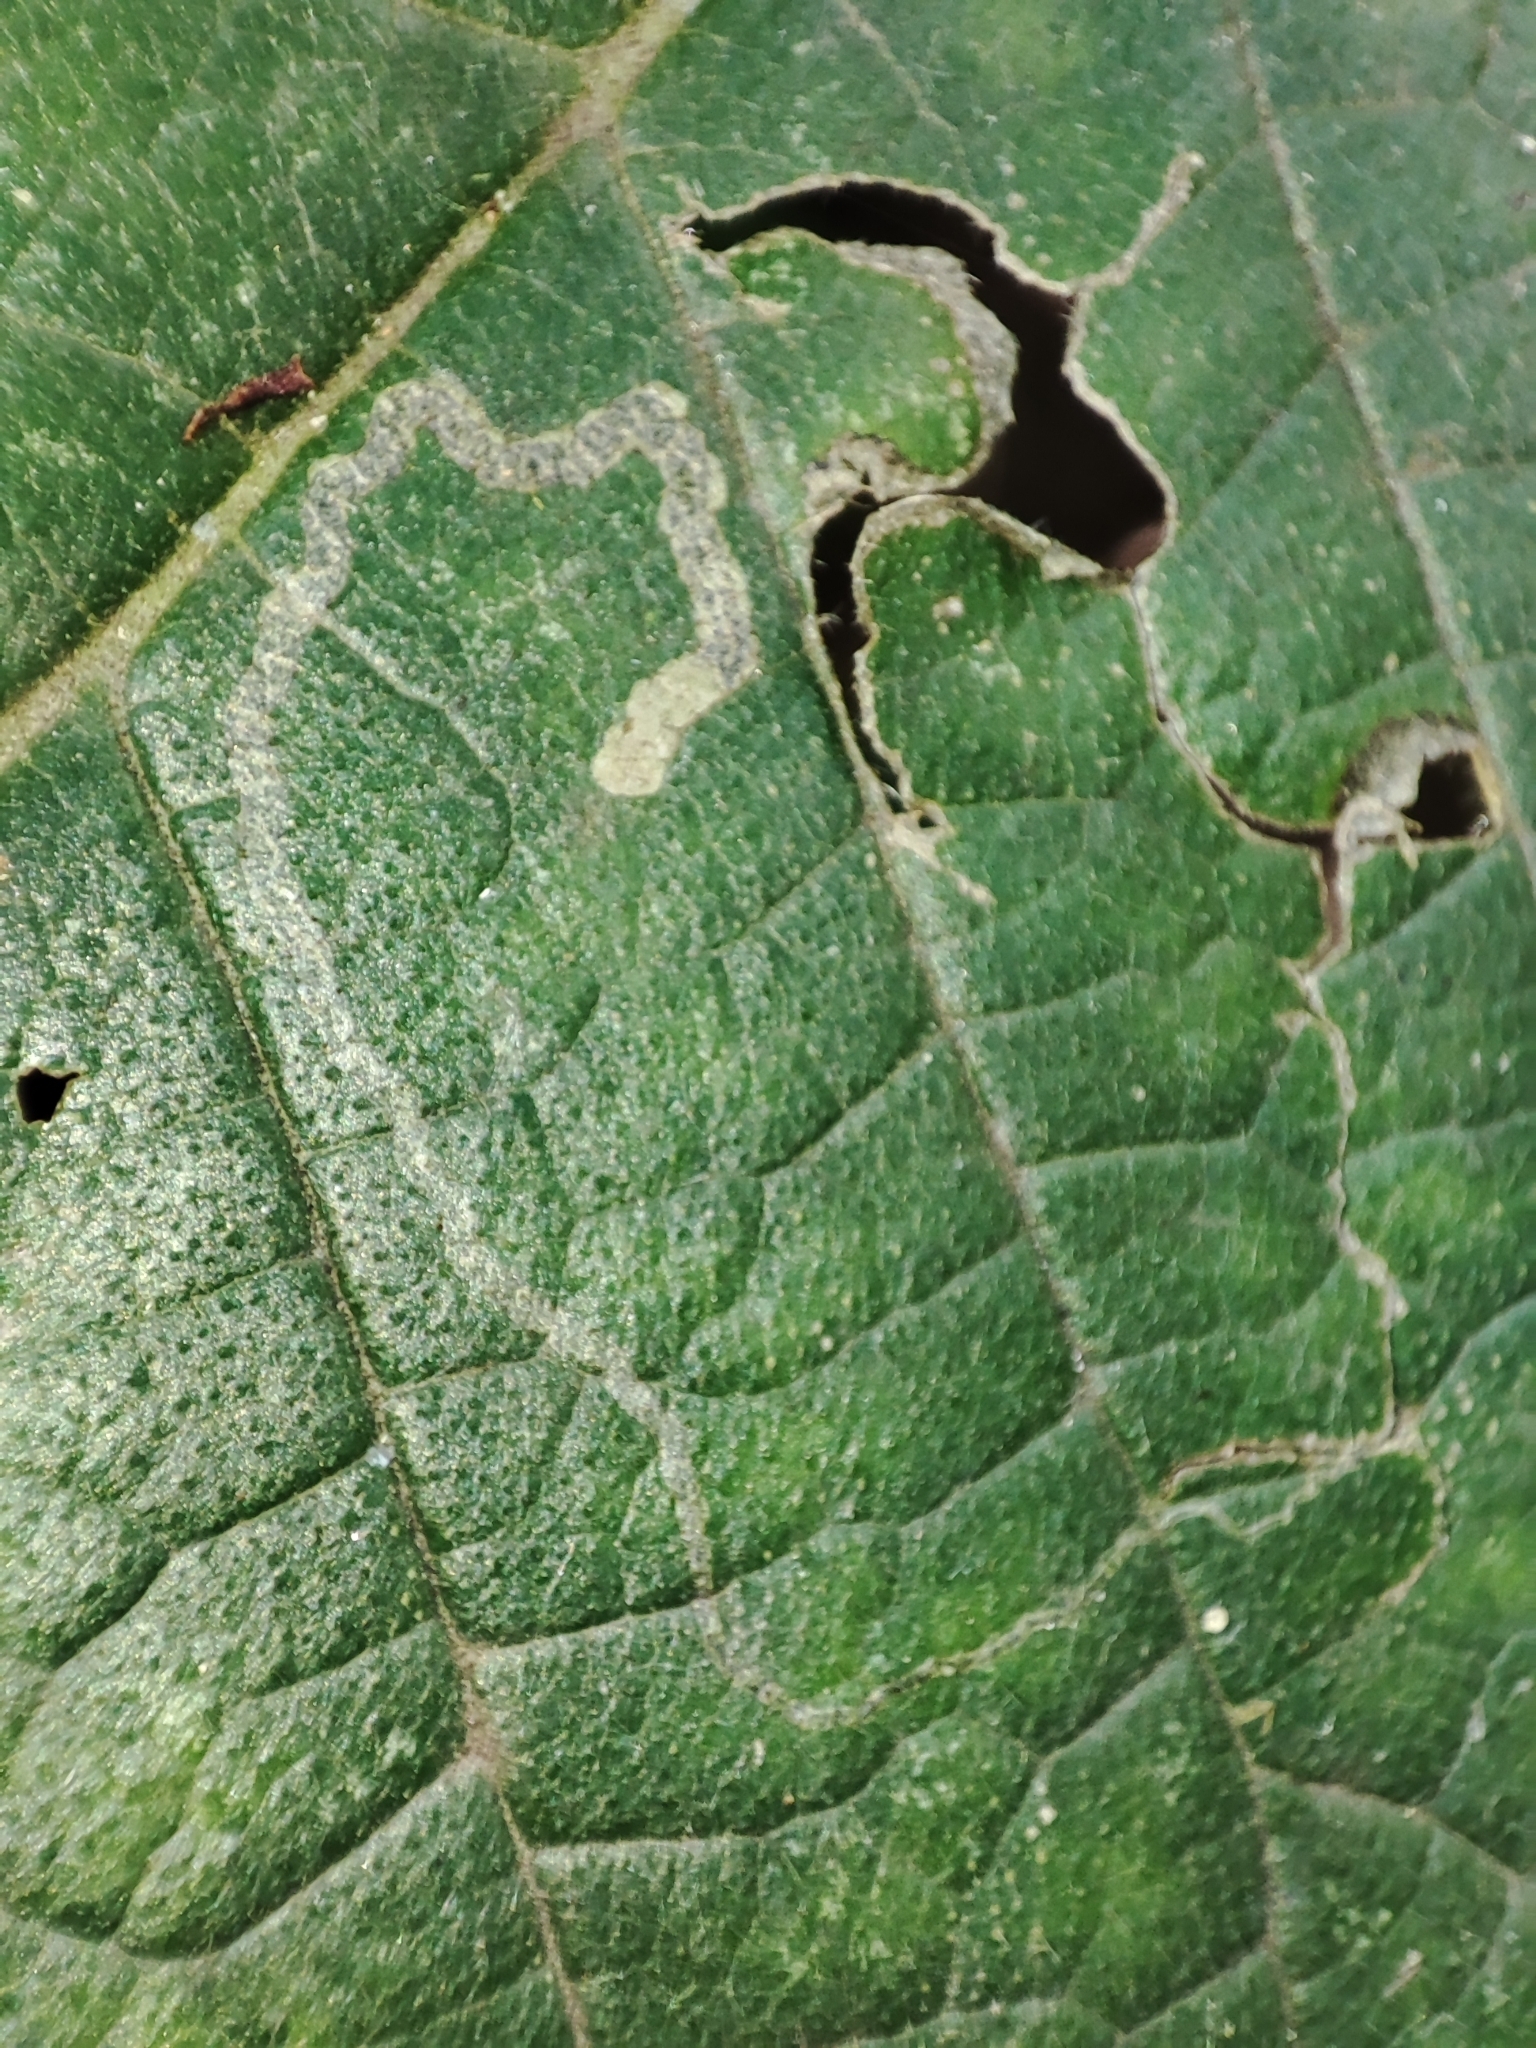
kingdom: Animalia
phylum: Arthropoda
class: Insecta
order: Lepidoptera
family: Nepticulidae
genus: Stigmella
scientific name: Stigmella lemniscella
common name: Red elm pigmy
